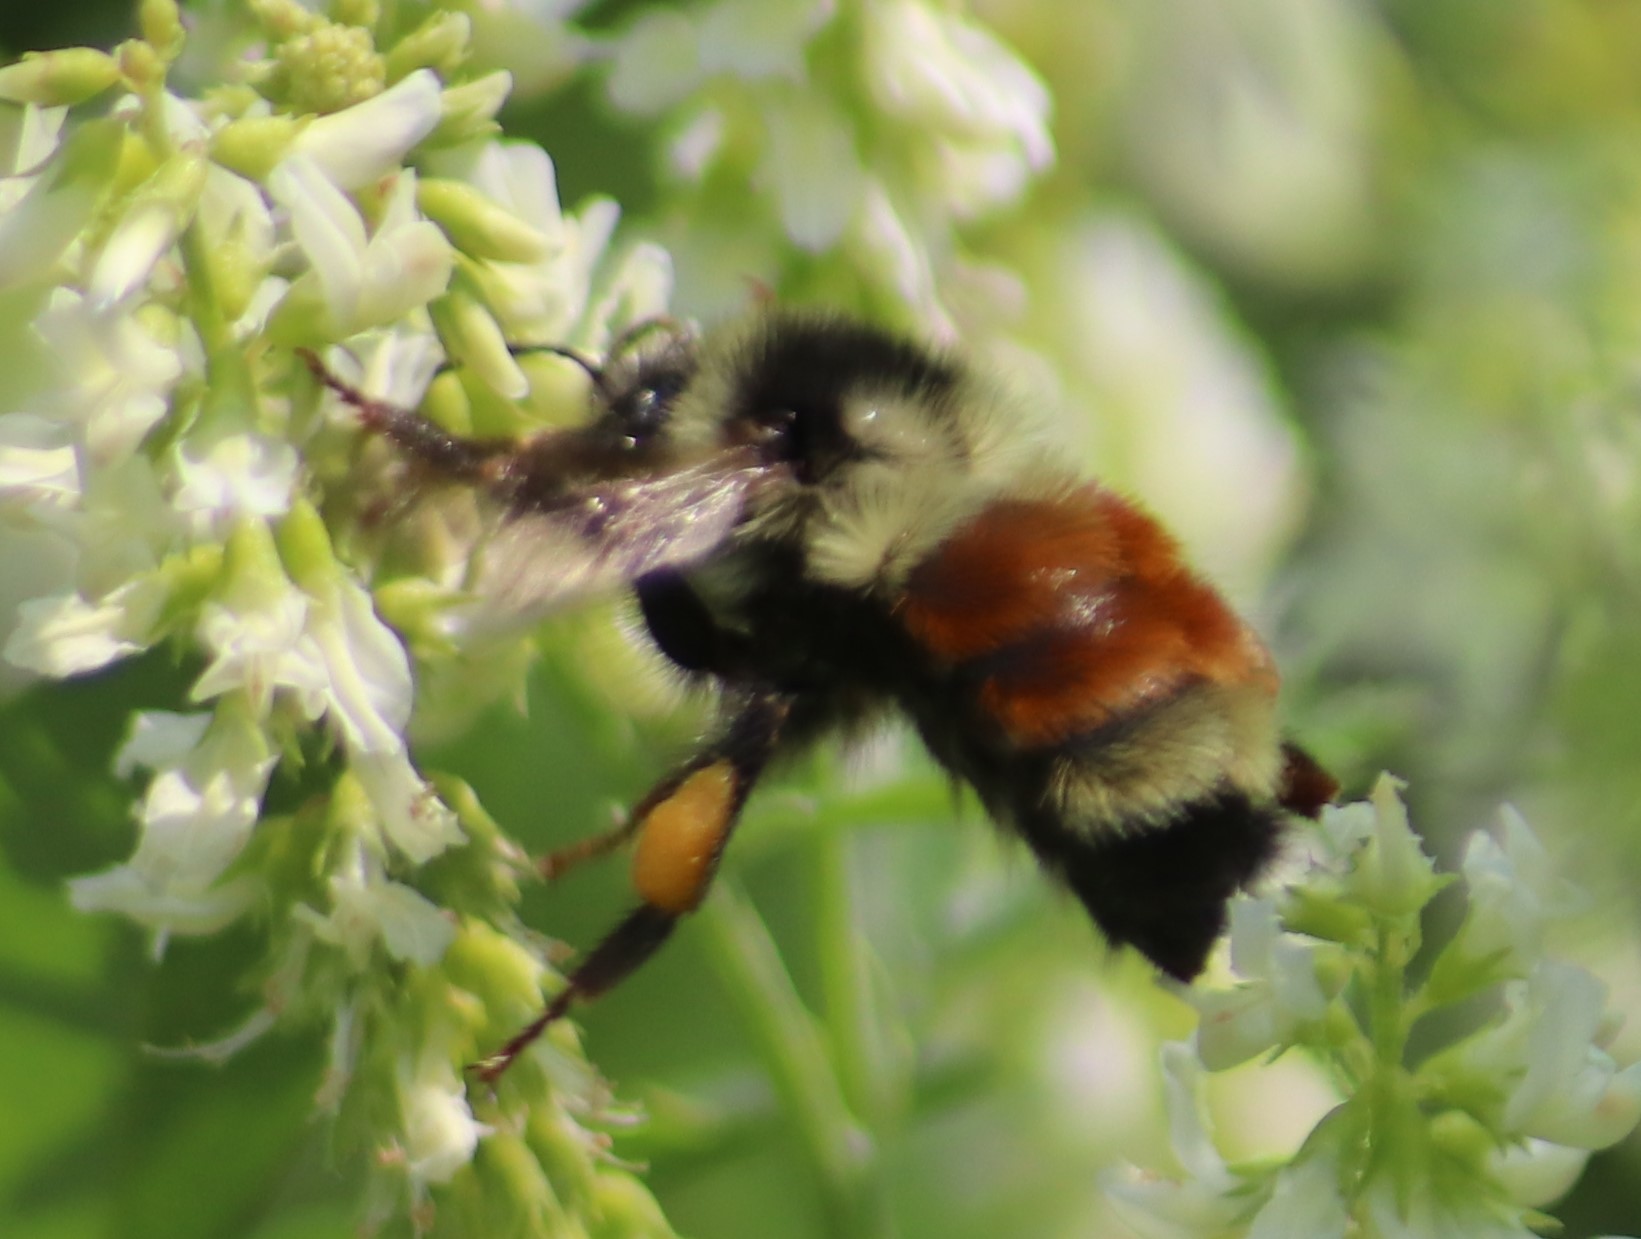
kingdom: Animalia
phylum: Arthropoda
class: Insecta
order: Hymenoptera
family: Apidae
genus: Bombus
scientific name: Bombus ternarius
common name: Tri-colored bumble bee
